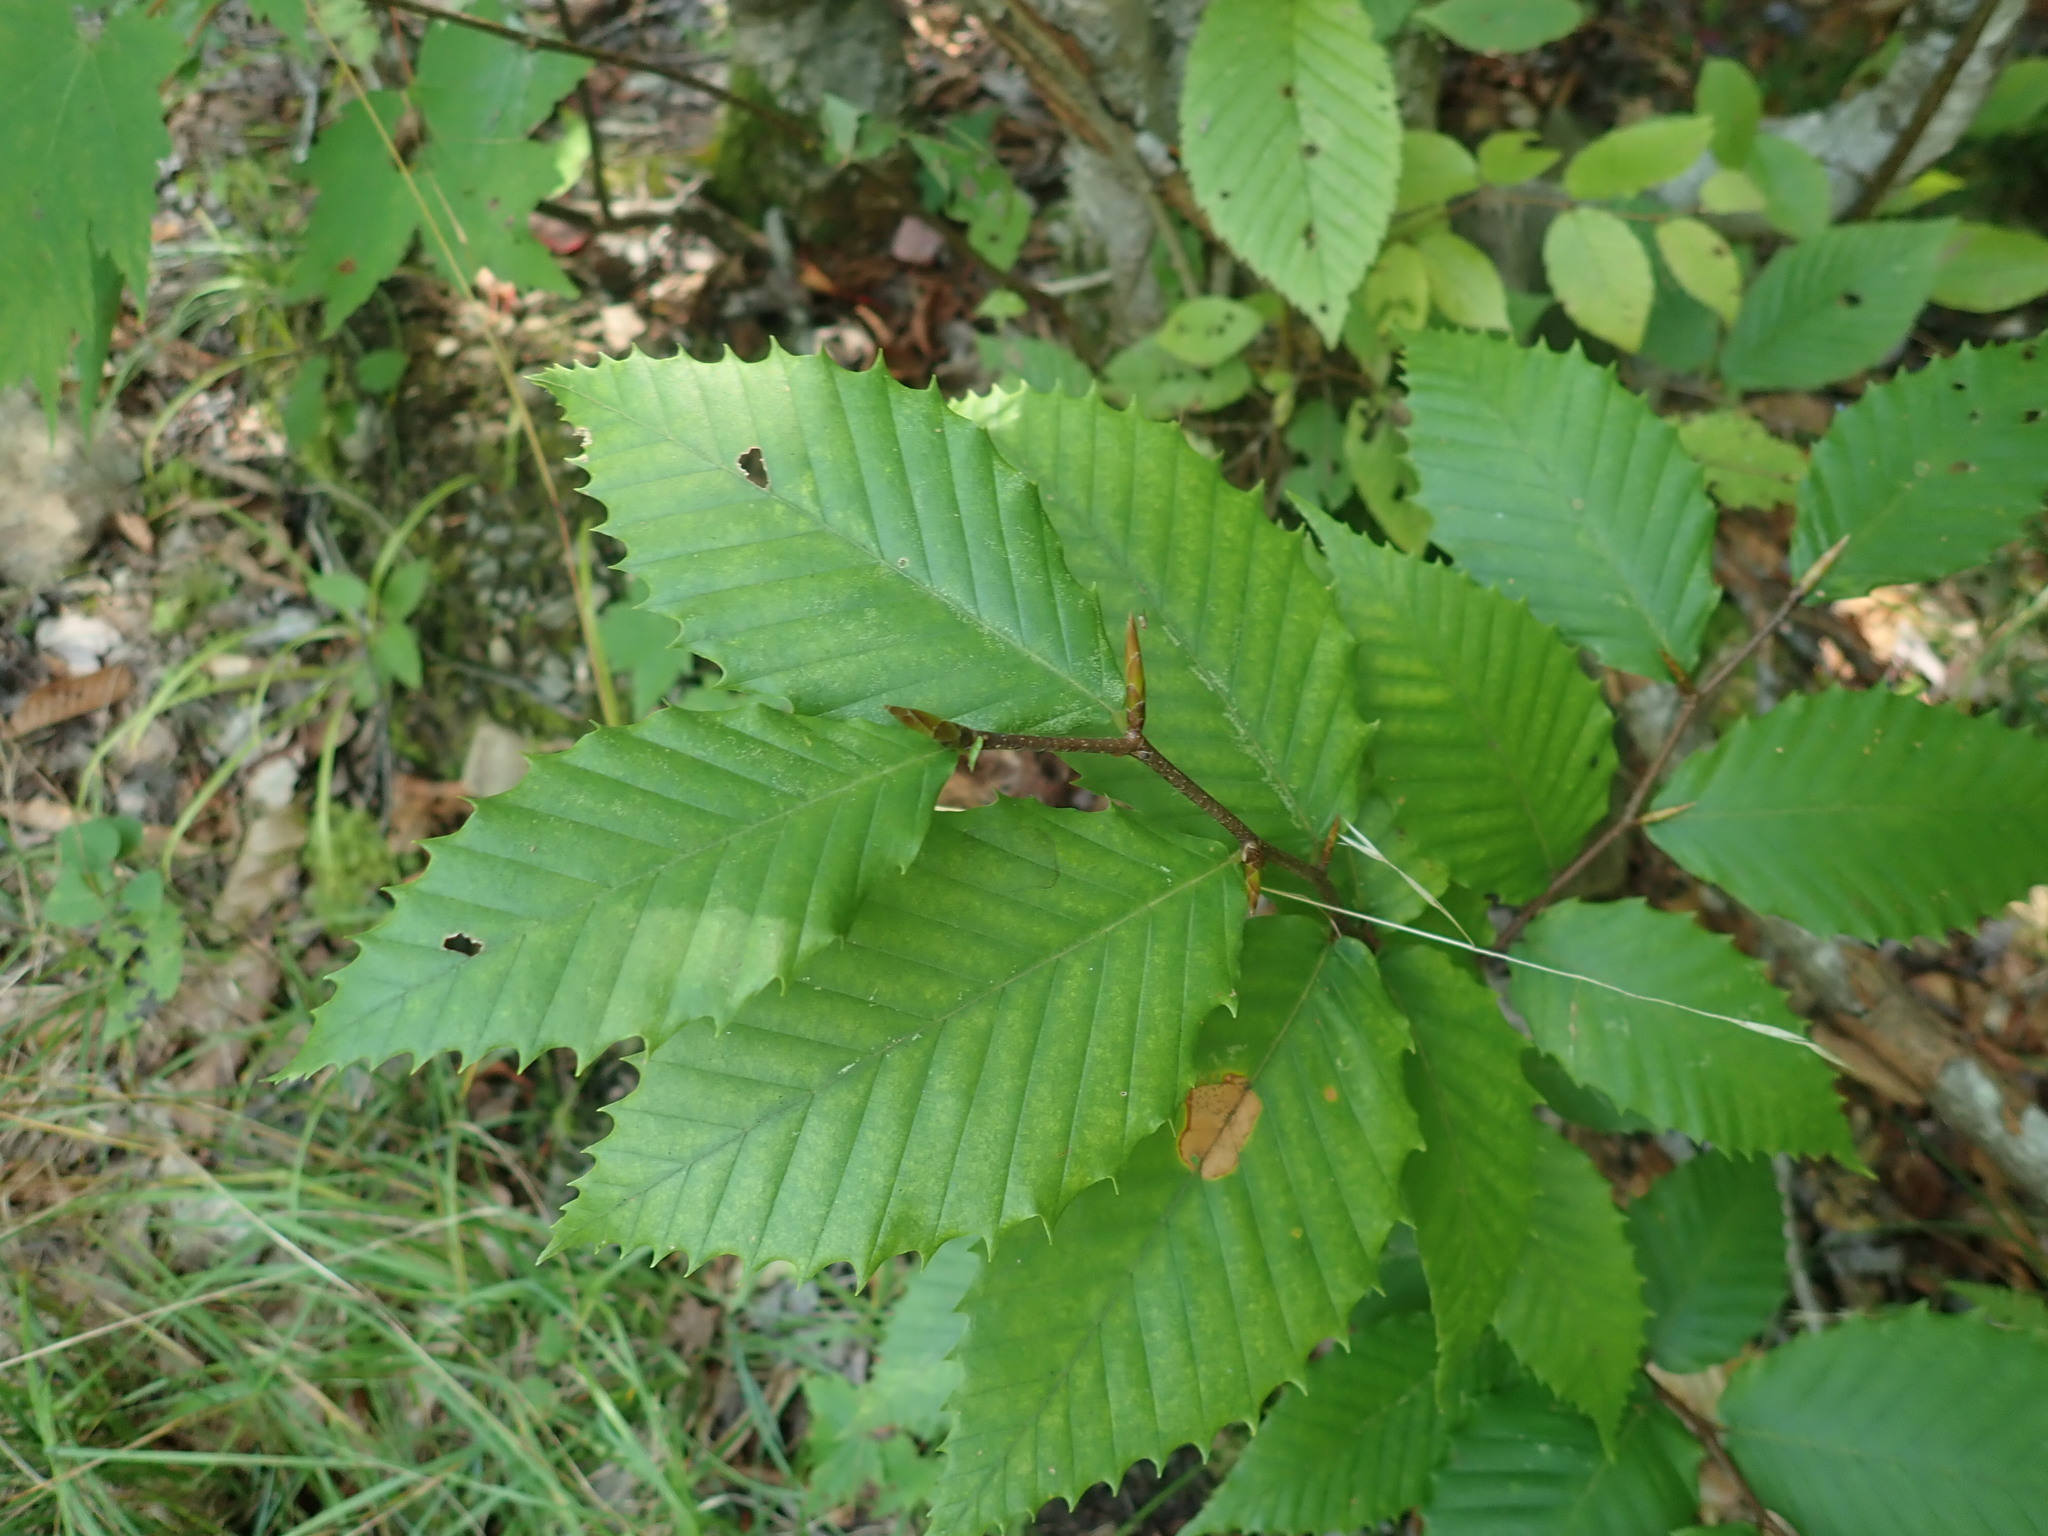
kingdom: Plantae
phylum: Tracheophyta
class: Magnoliopsida
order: Fagales
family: Fagaceae
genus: Fagus
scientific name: Fagus grandifolia
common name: American beech
